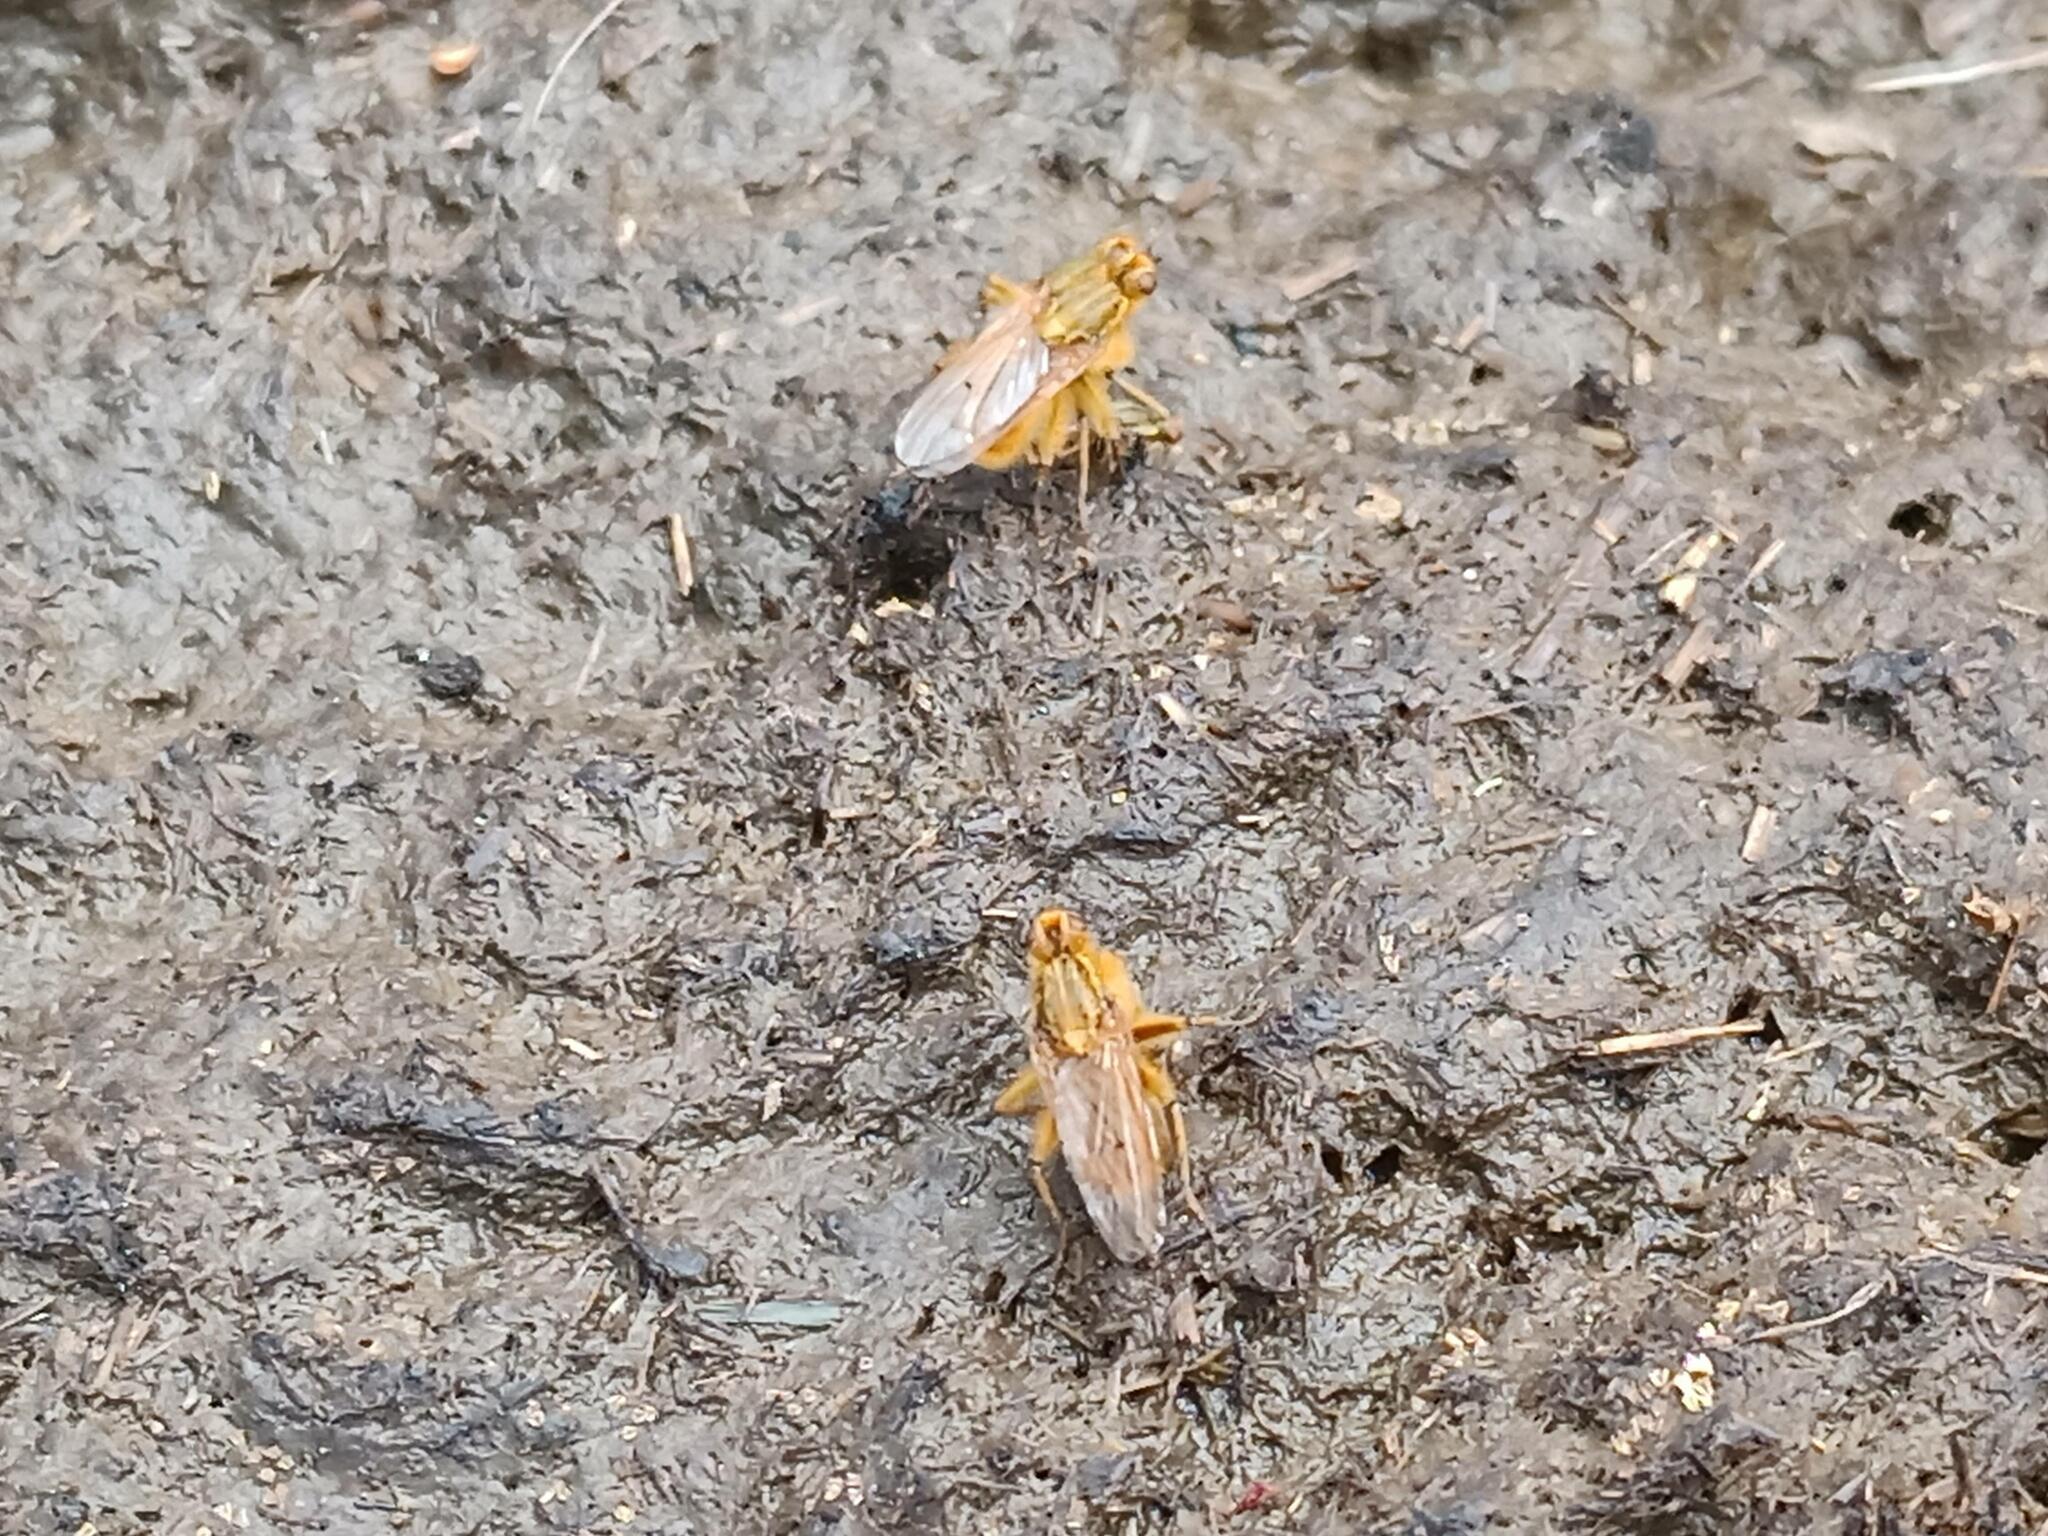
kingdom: Animalia
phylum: Arthropoda
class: Insecta
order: Diptera
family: Scathophagidae
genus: Scathophaga
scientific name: Scathophaga stercoraria
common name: Yellow dung fly
